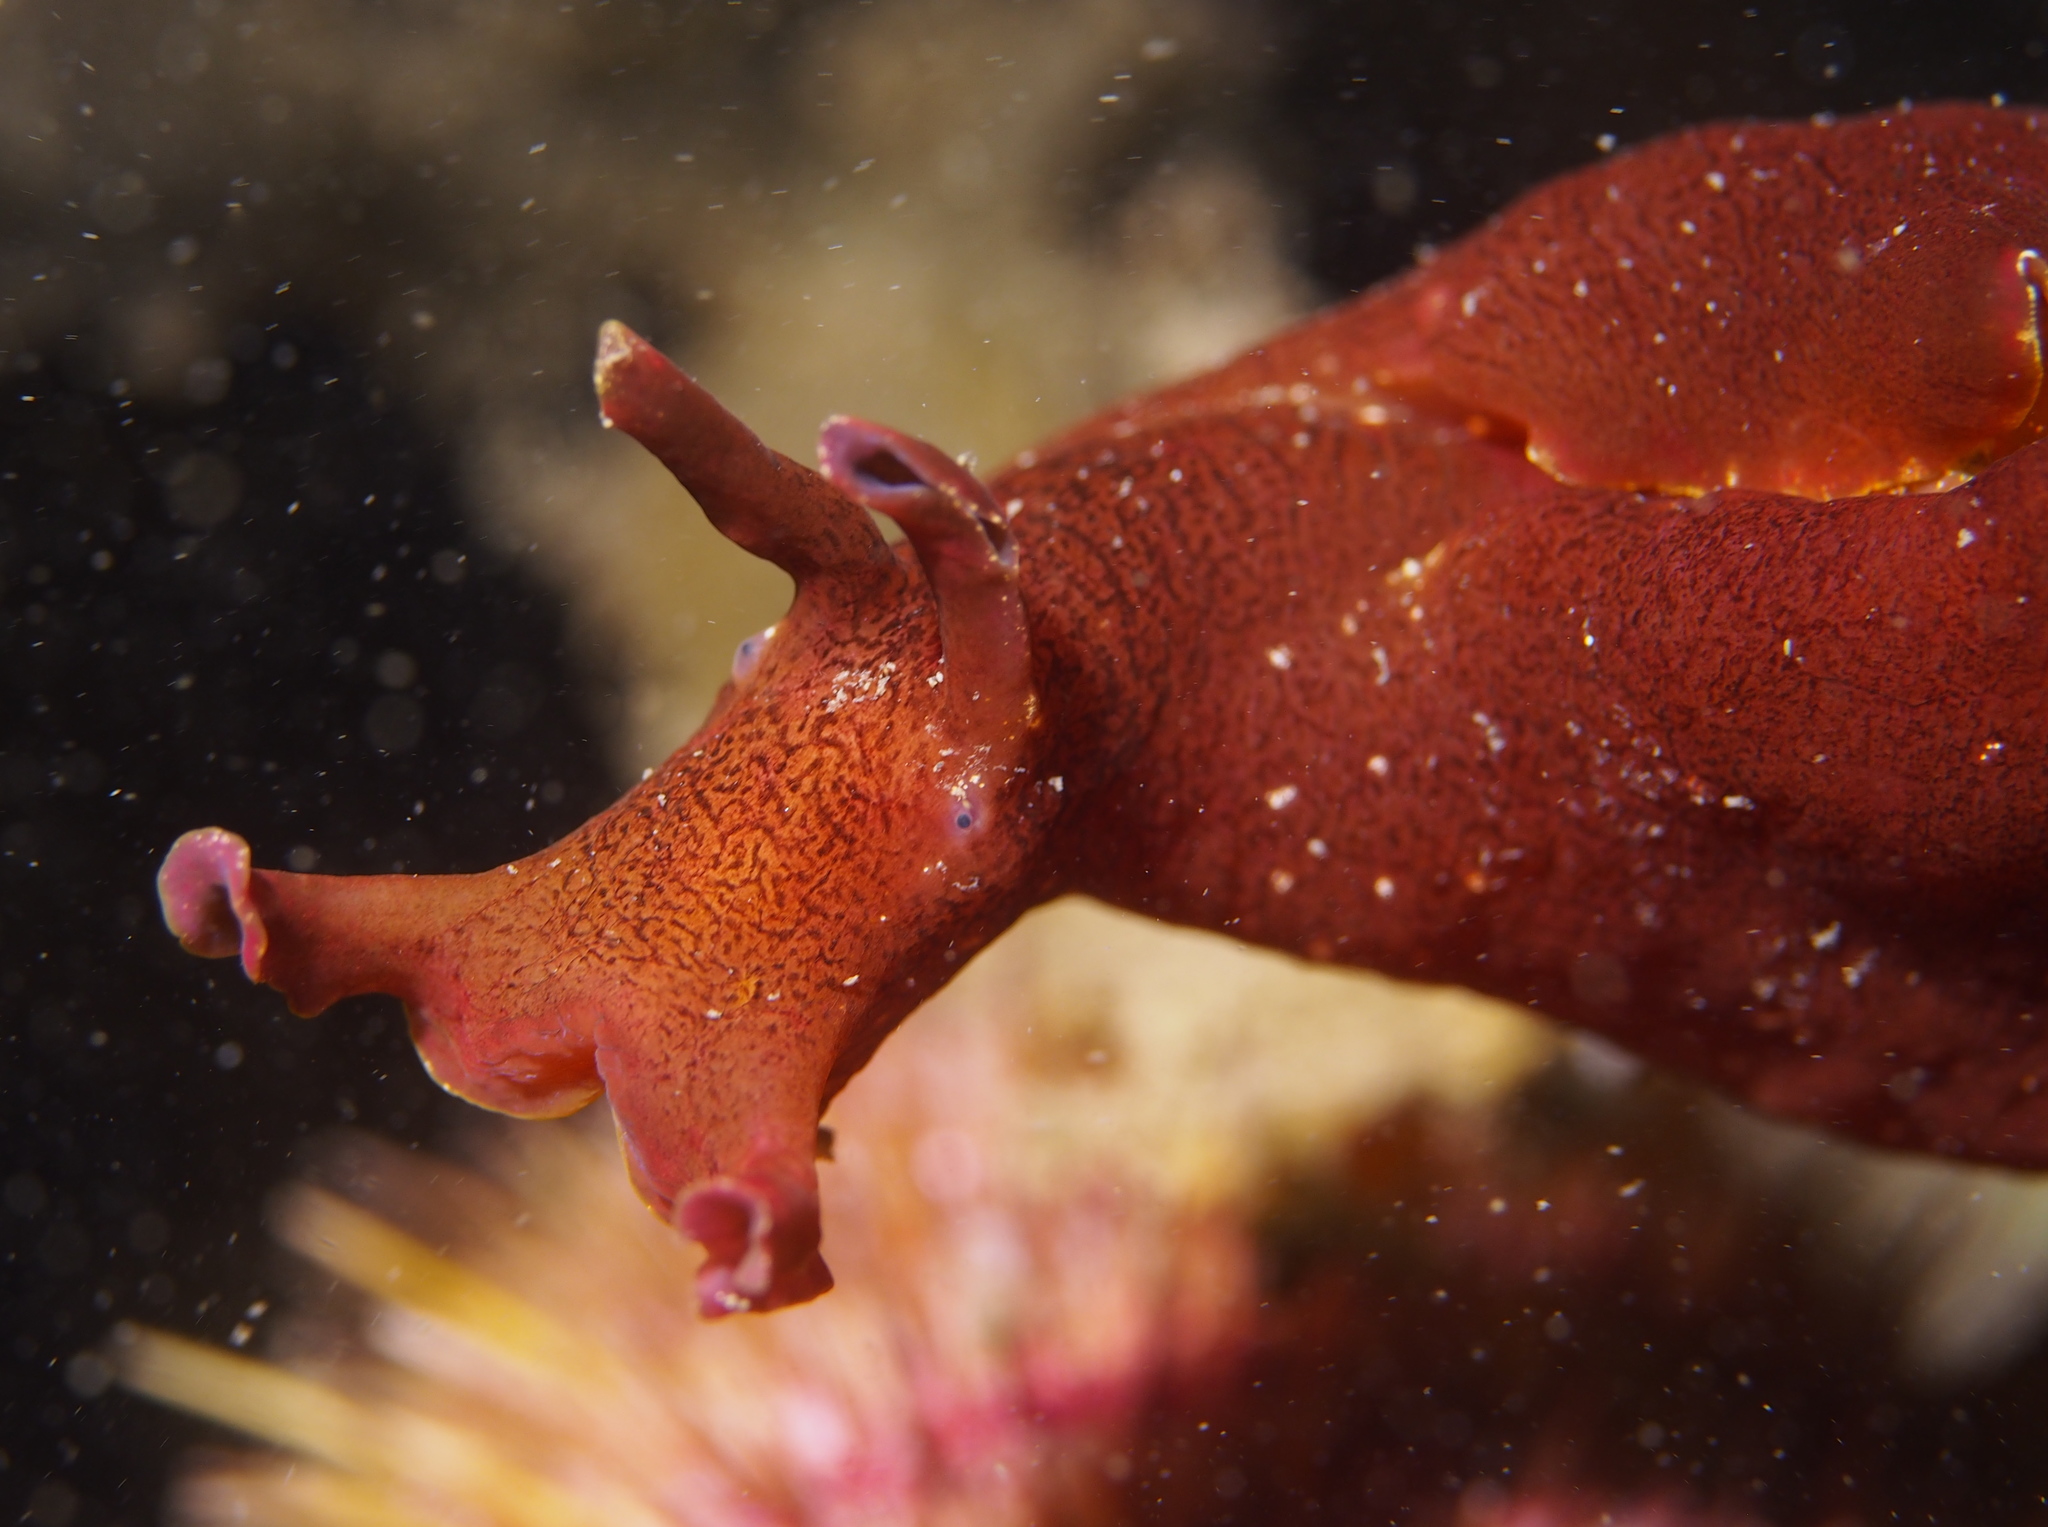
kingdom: Animalia
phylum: Mollusca
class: Gastropoda
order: Aplysiida
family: Aplysiidae
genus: Aplysia
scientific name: Aplysia punctata
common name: Common sea hare
